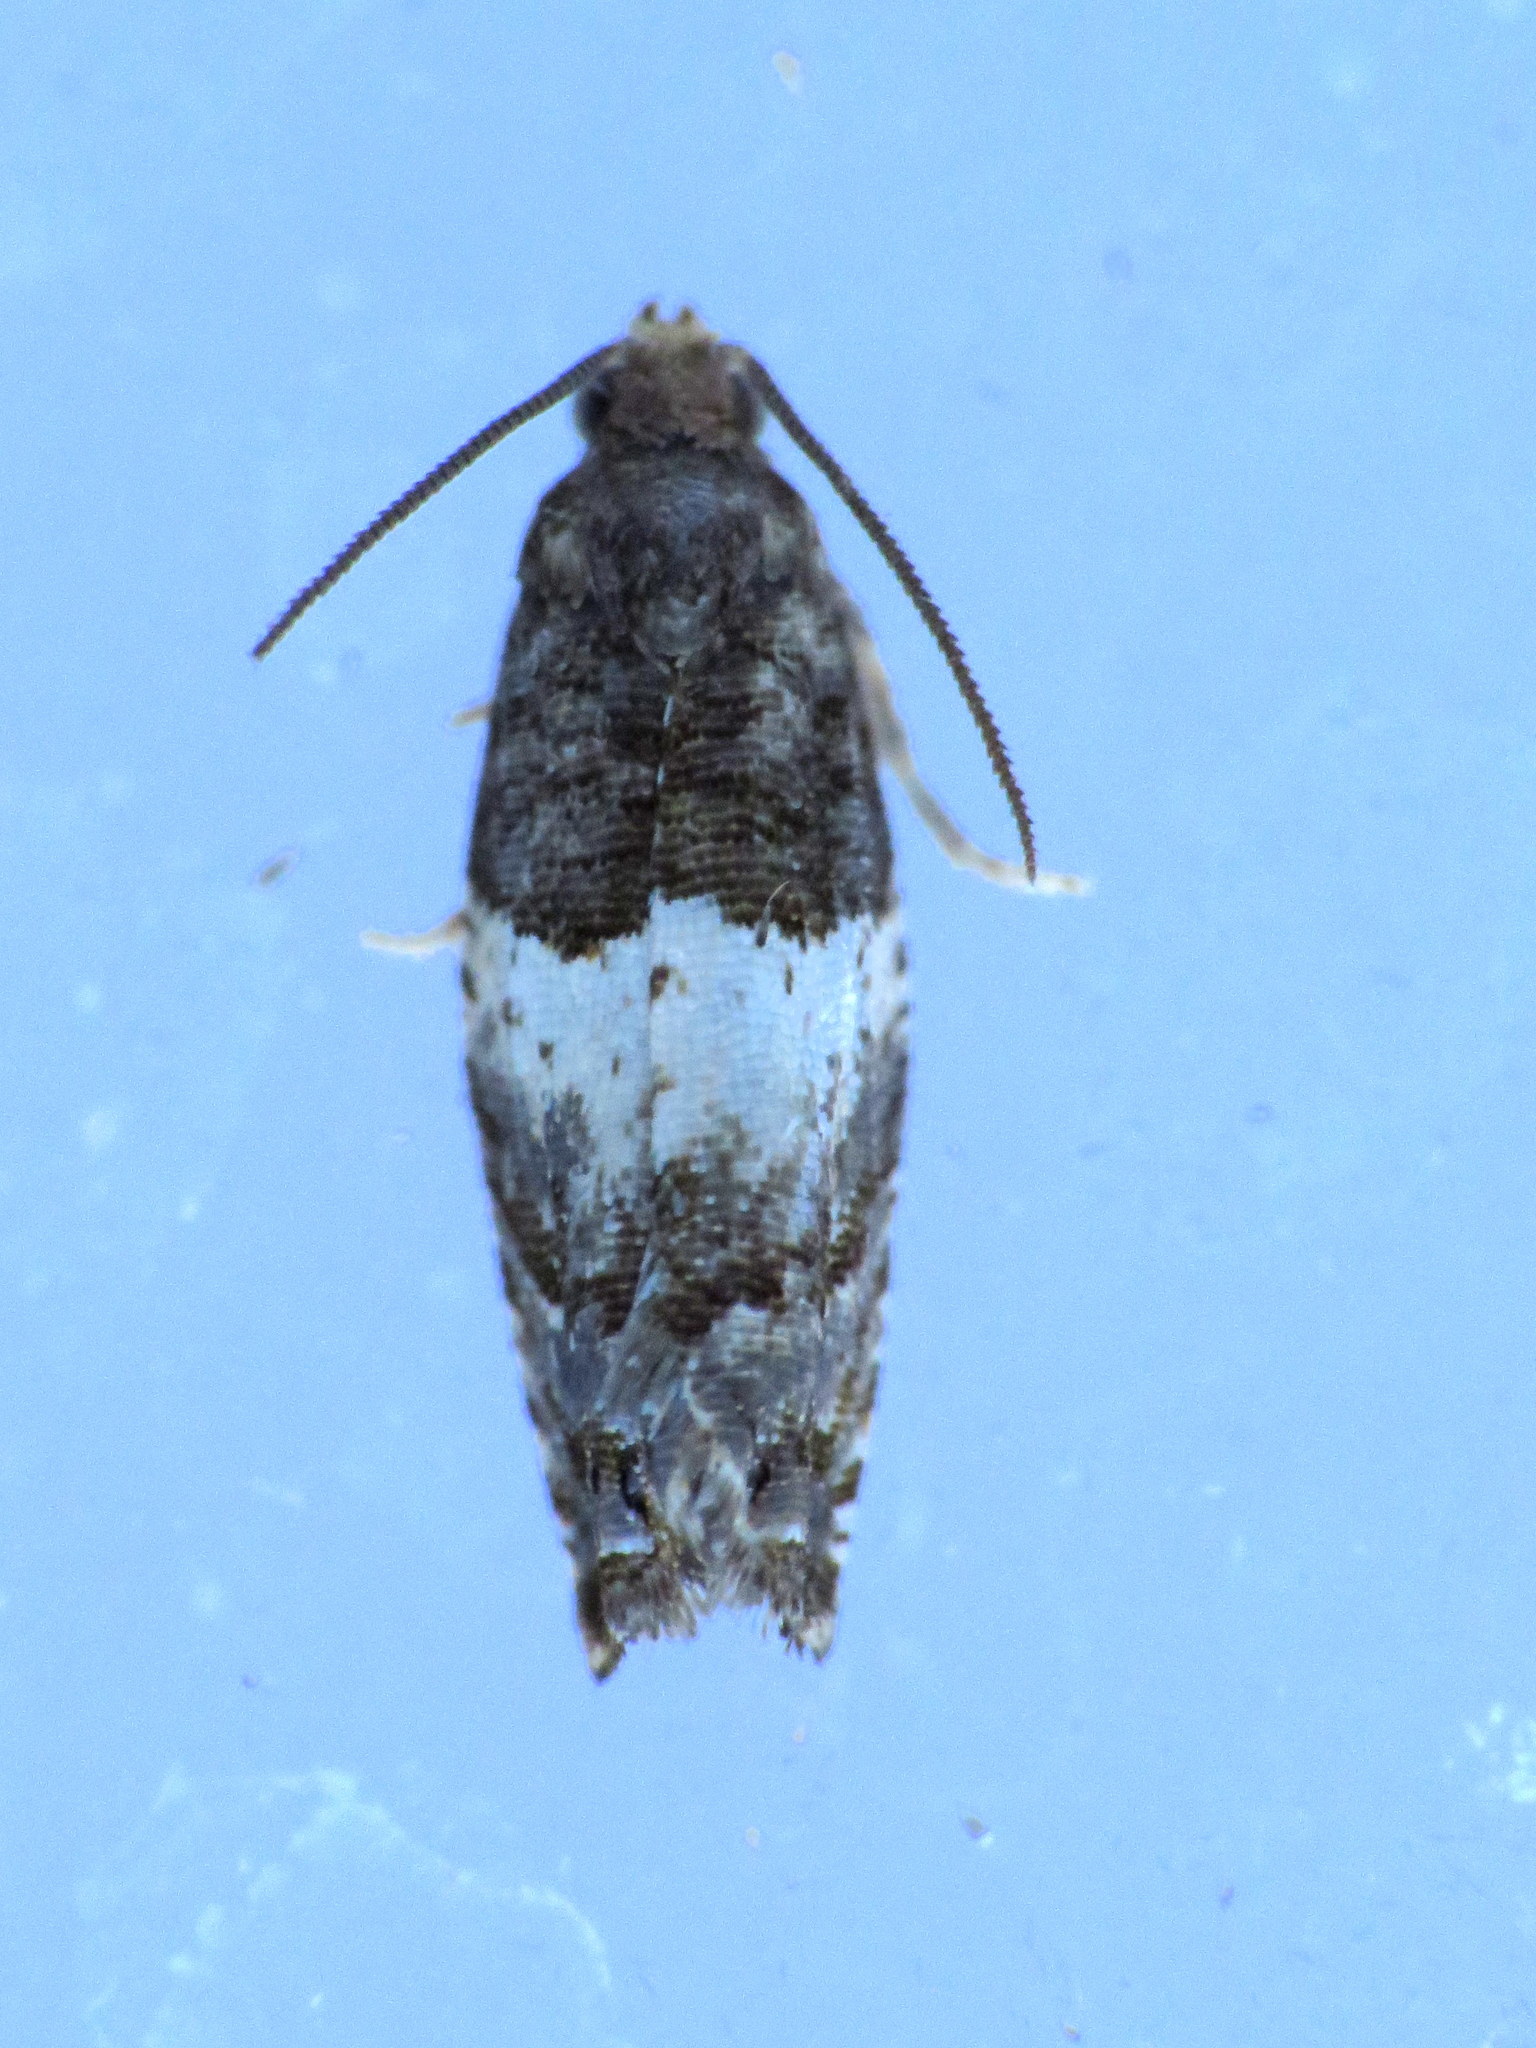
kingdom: Animalia
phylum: Arthropoda
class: Insecta
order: Lepidoptera
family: Tortricidae
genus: Gypsonoma
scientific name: Gypsonoma substitutionis
